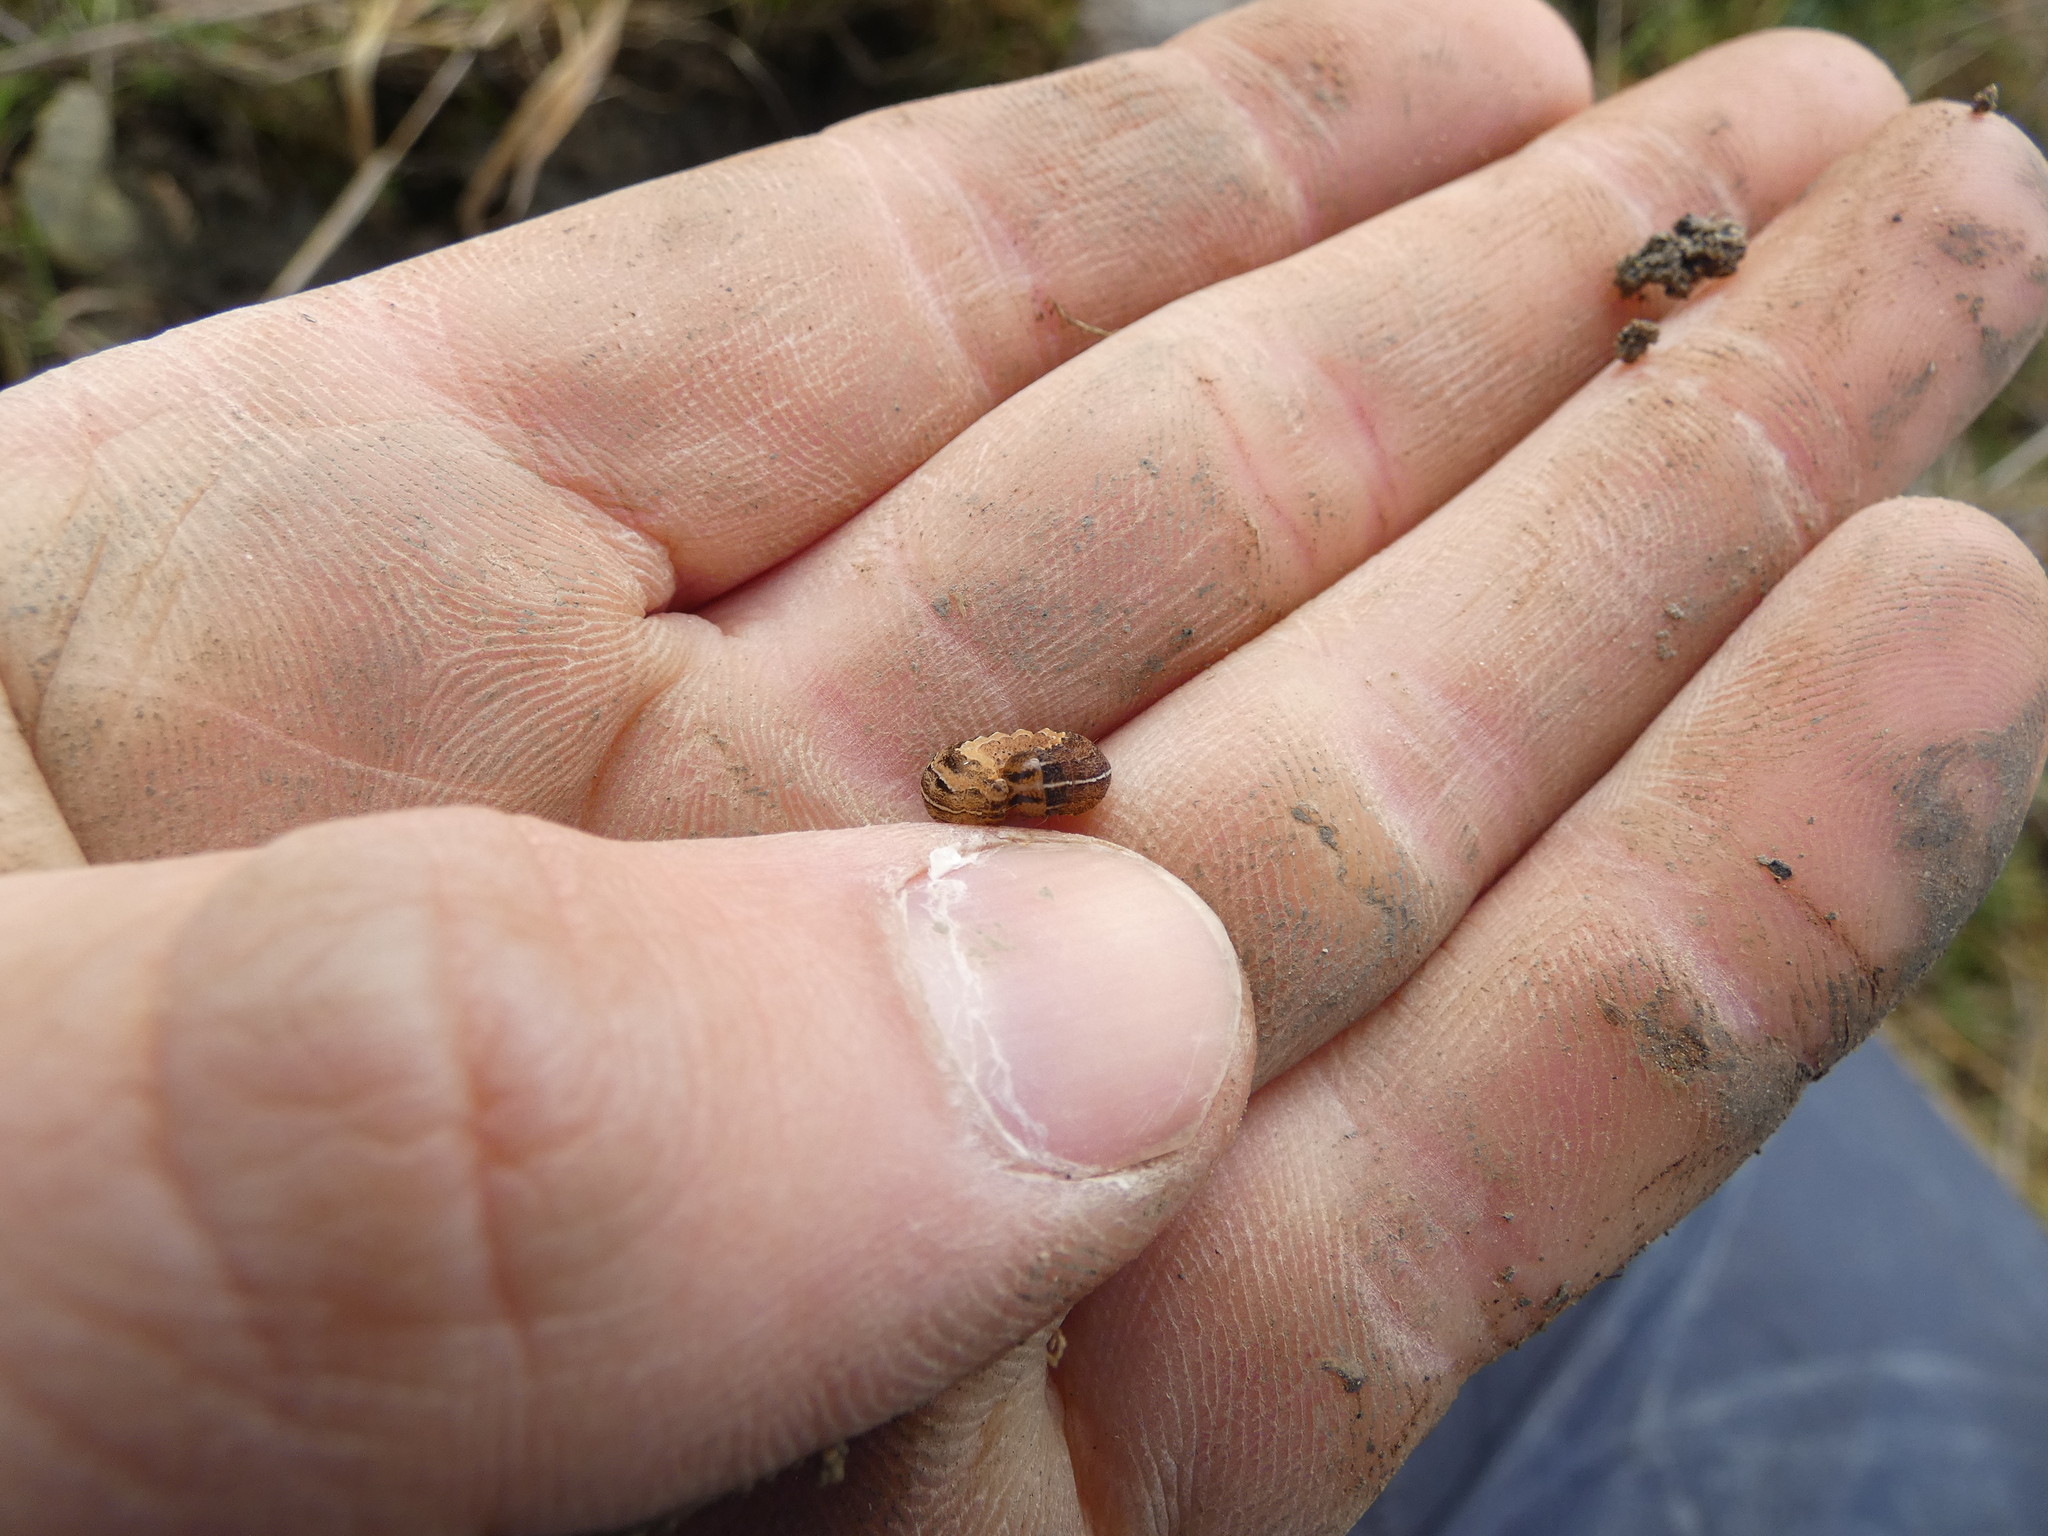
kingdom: Animalia
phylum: Arthropoda
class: Insecta
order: Lepidoptera
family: Noctuidae
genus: Xestia
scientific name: Xestia xanthographa
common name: Square-spot rustic
